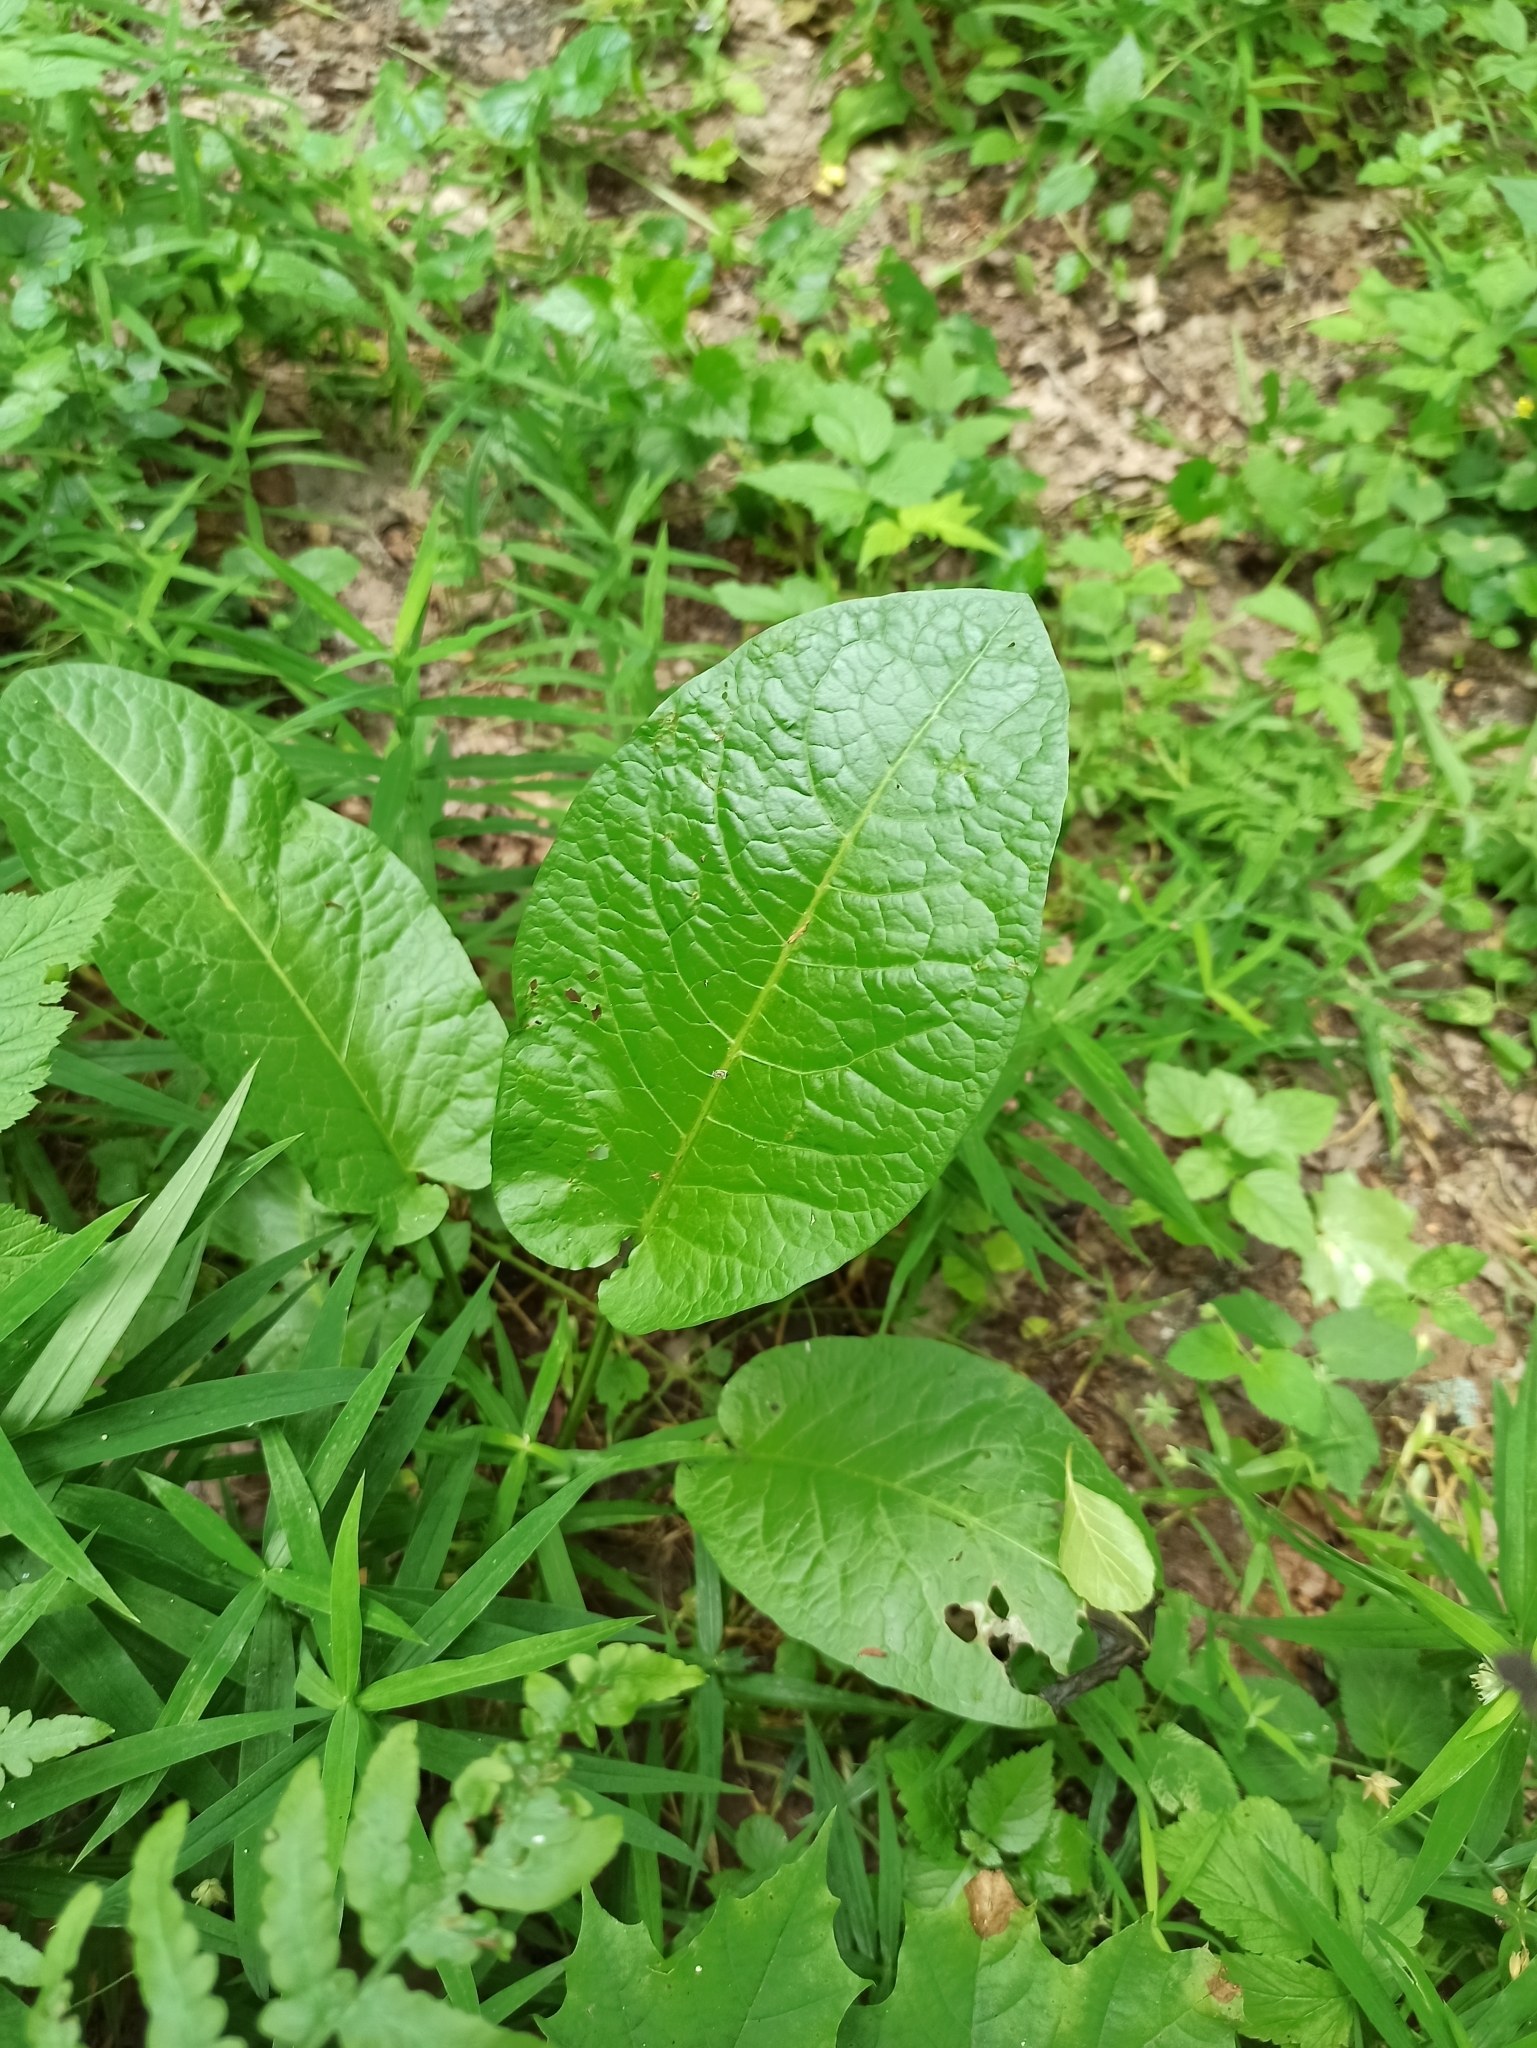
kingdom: Plantae
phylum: Tracheophyta
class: Magnoliopsida
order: Caryophyllales
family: Polygonaceae
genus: Rumex
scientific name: Rumex obtusifolius
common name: Bitter dock
